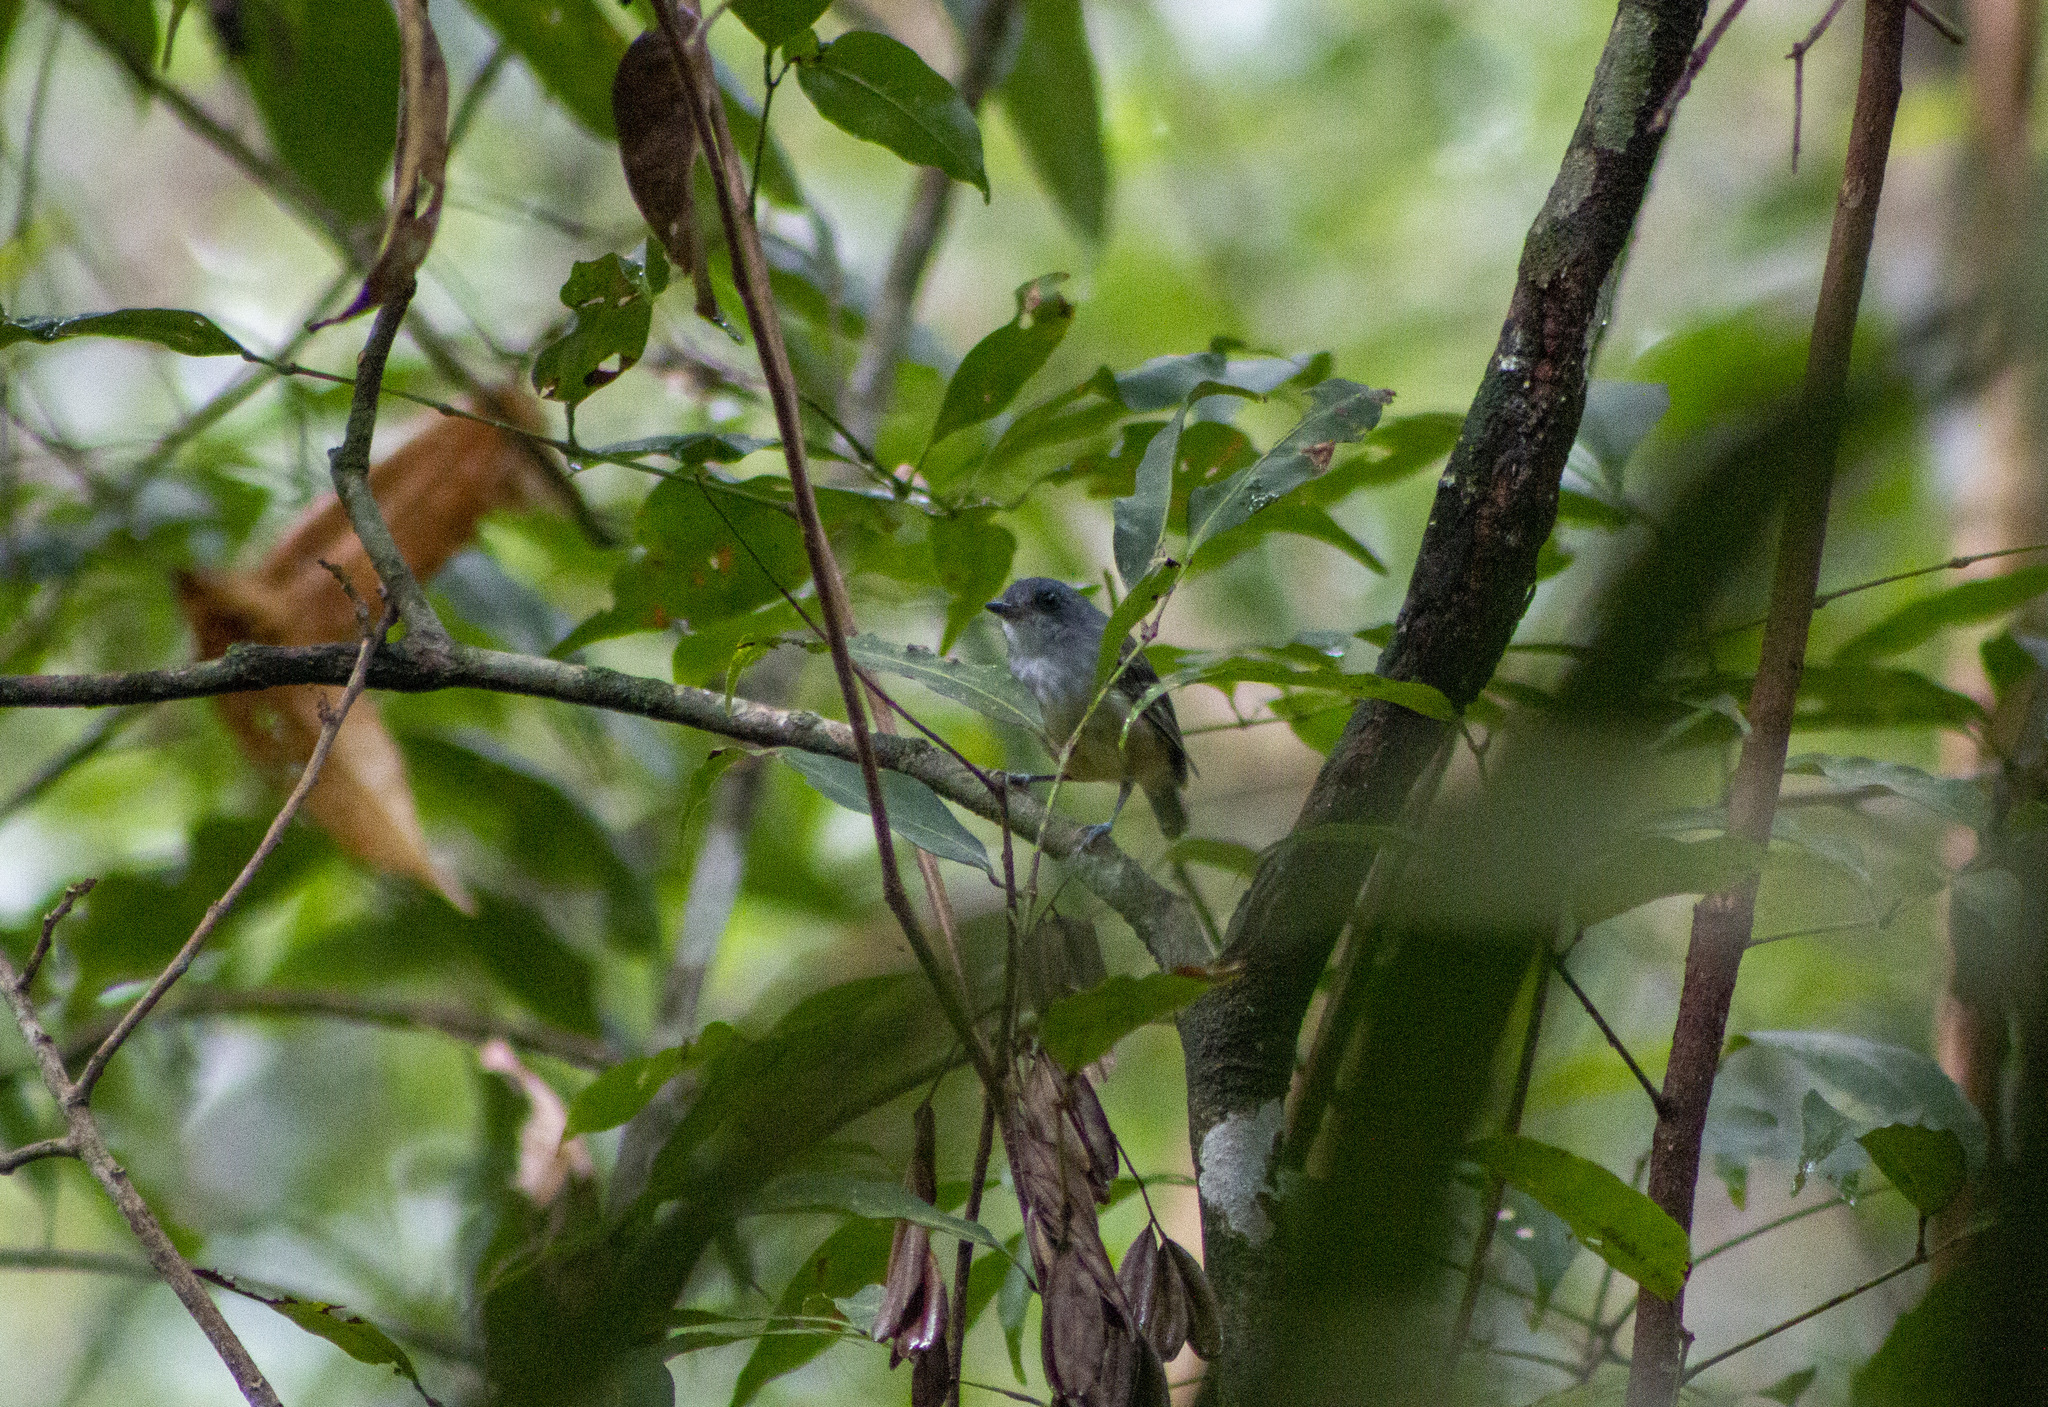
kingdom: Animalia
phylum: Chordata
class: Aves
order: Passeriformes
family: Thamnophilidae
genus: Dysithamnus
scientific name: Dysithamnus mentalis
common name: Plain antvireo
